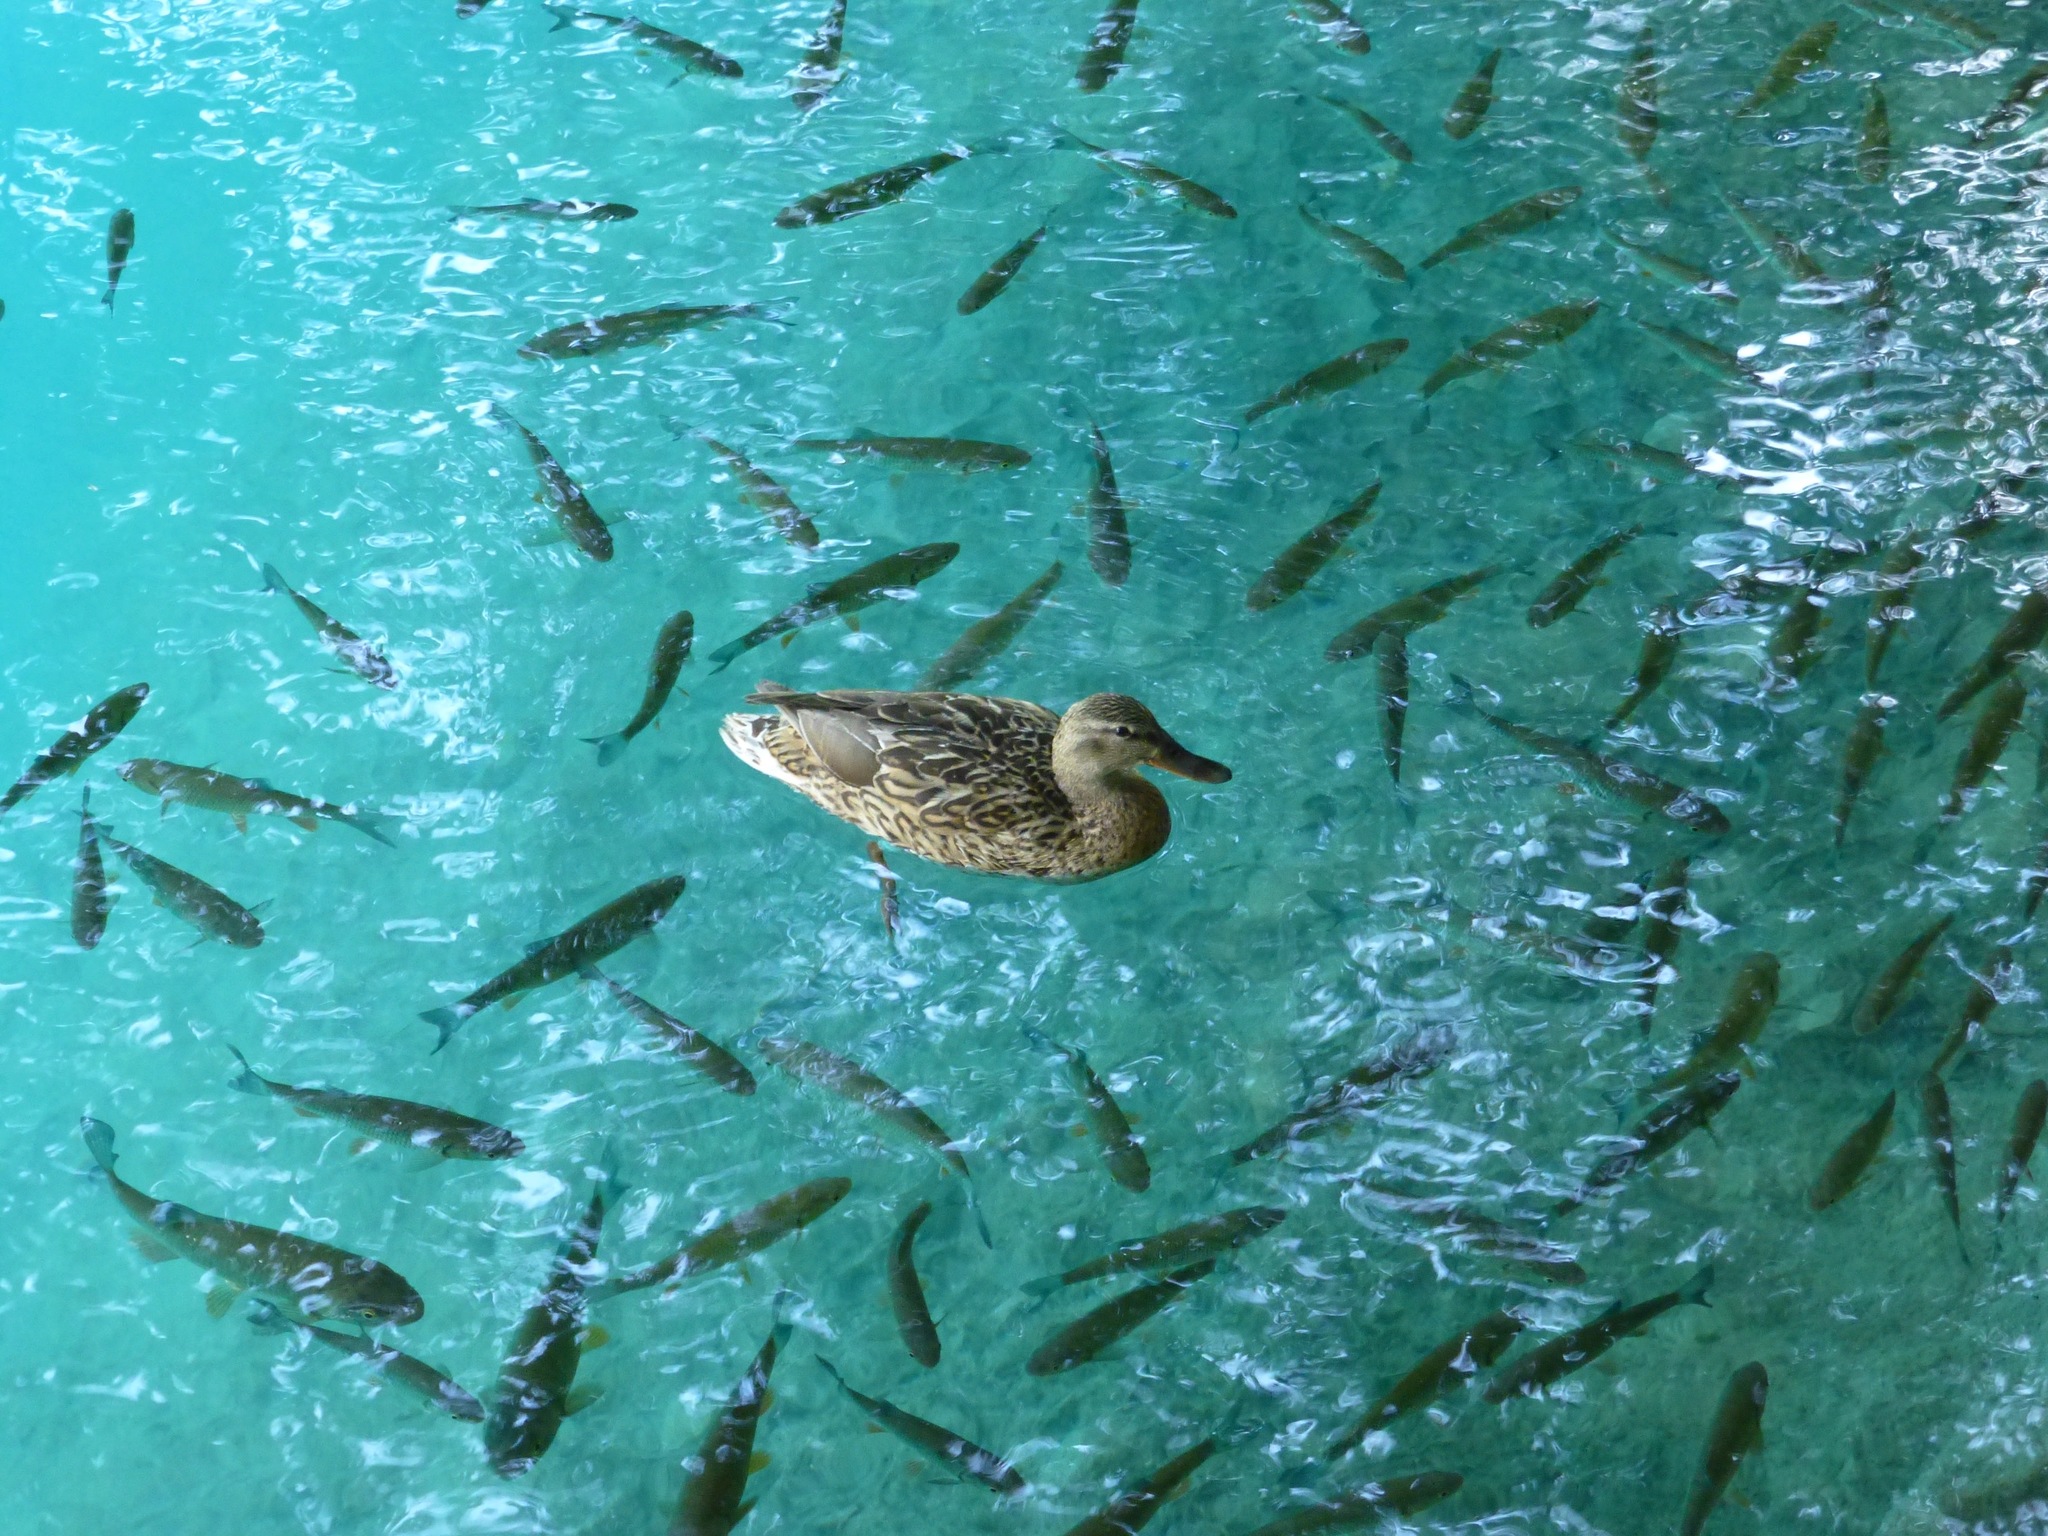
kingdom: Animalia
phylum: Chordata
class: Aves
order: Anseriformes
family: Anatidae
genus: Anas
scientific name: Anas platyrhynchos
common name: Mallard
